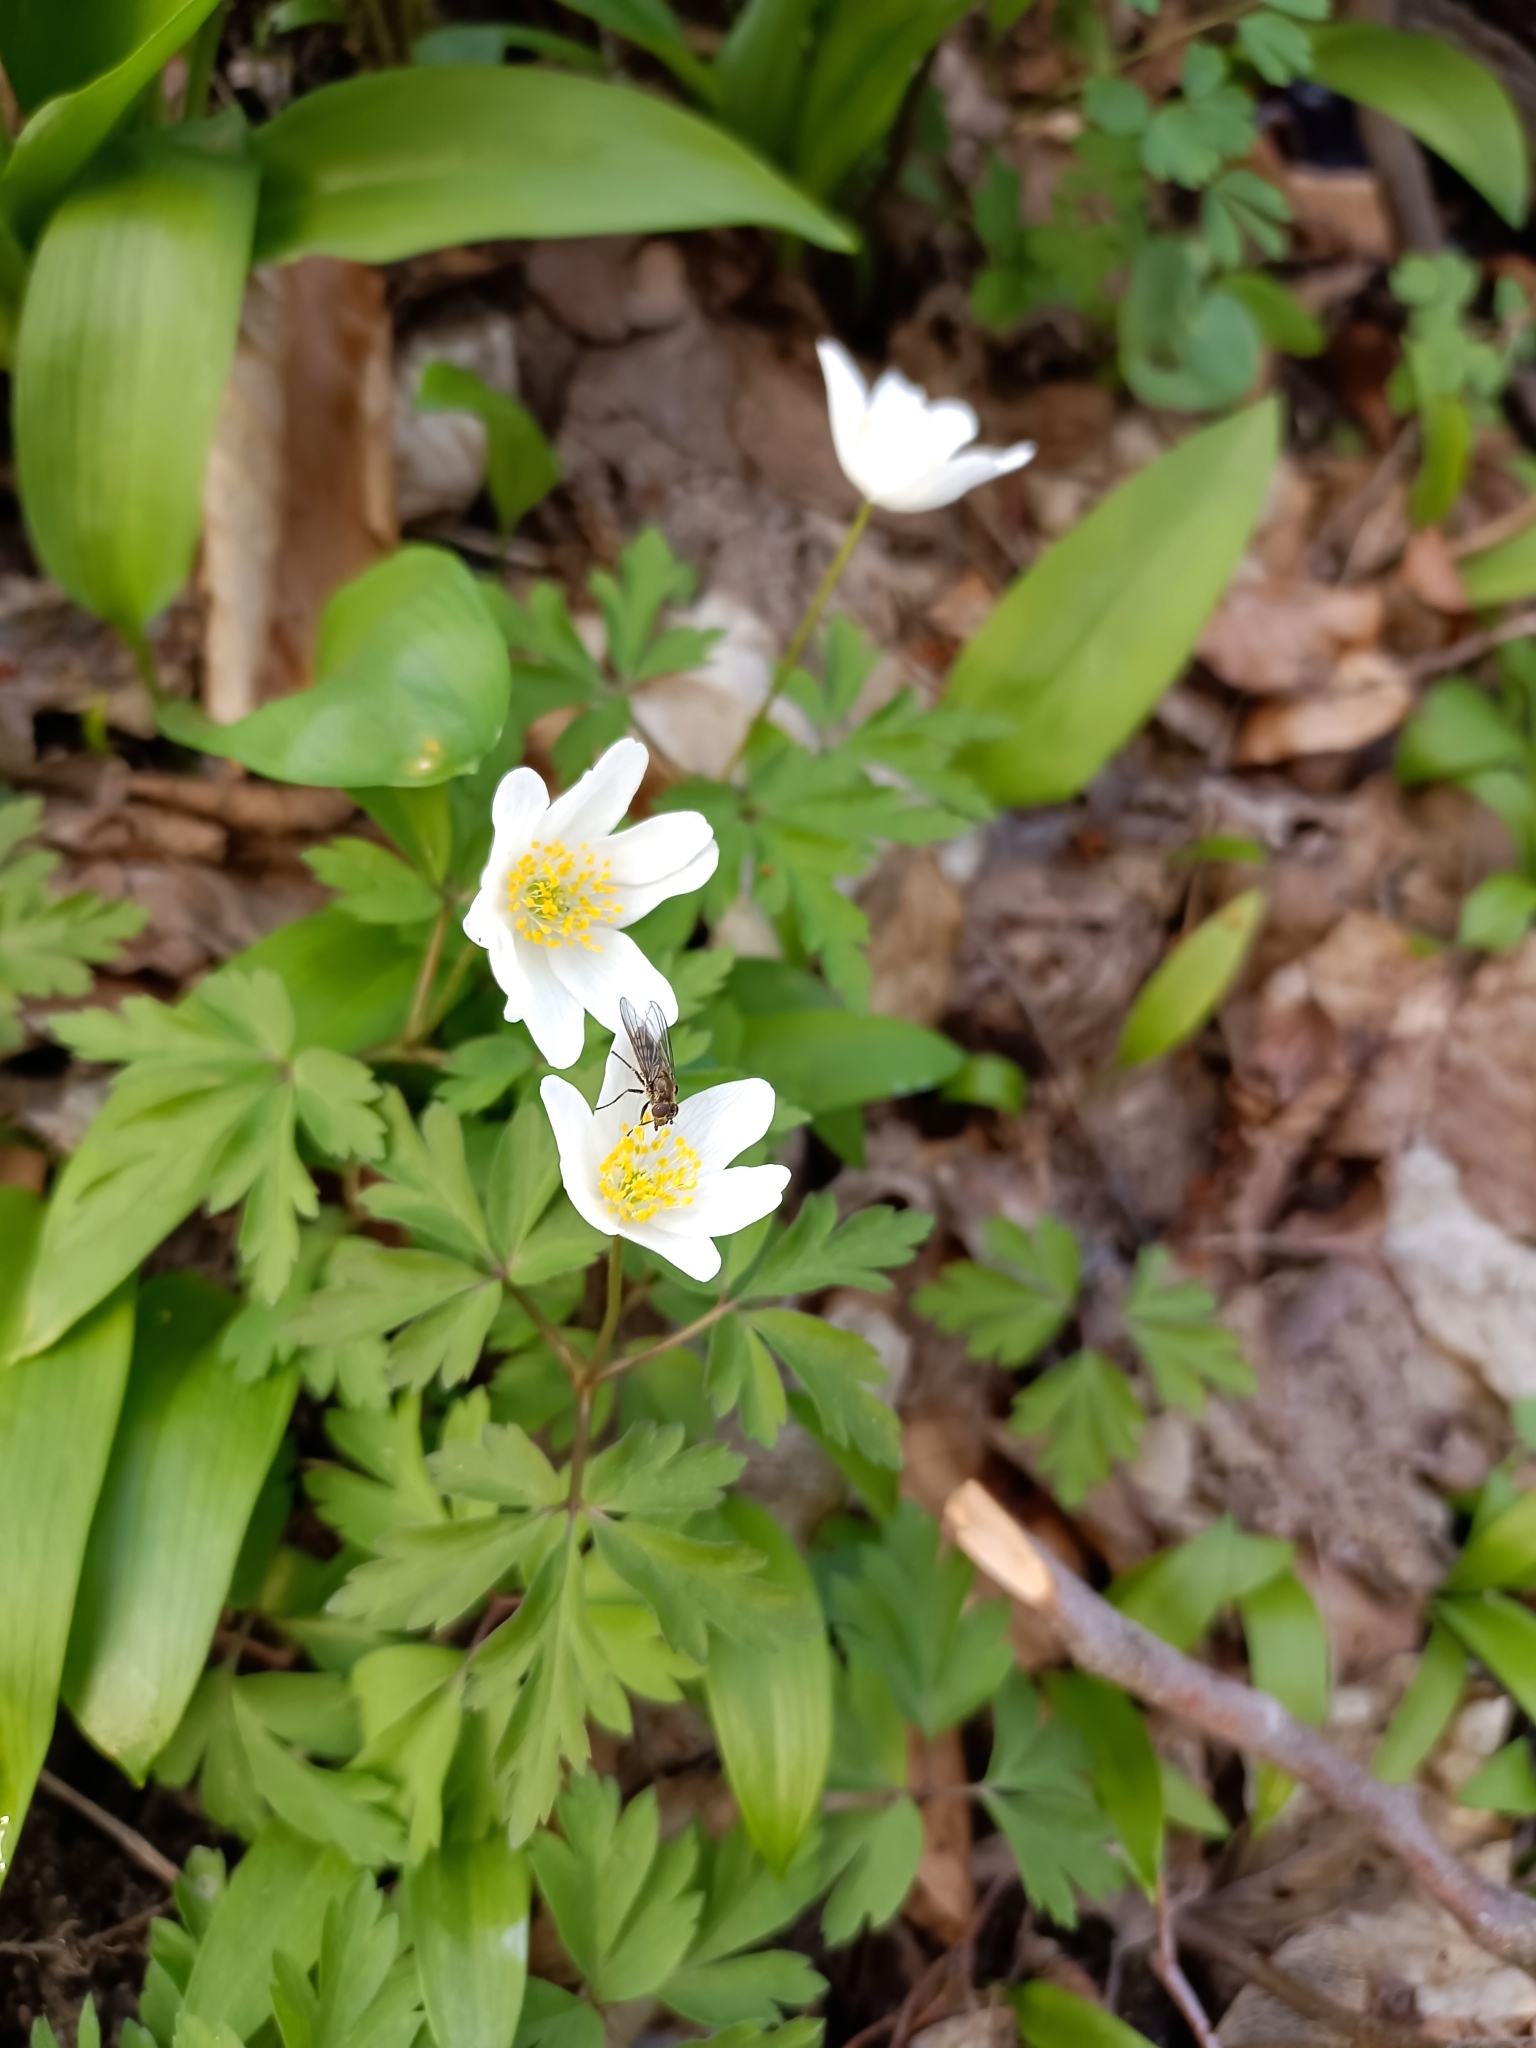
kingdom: Plantae
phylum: Tracheophyta
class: Magnoliopsida
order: Ranunculales
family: Ranunculaceae
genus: Anemone
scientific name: Anemone nemorosa
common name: Wood anemone
